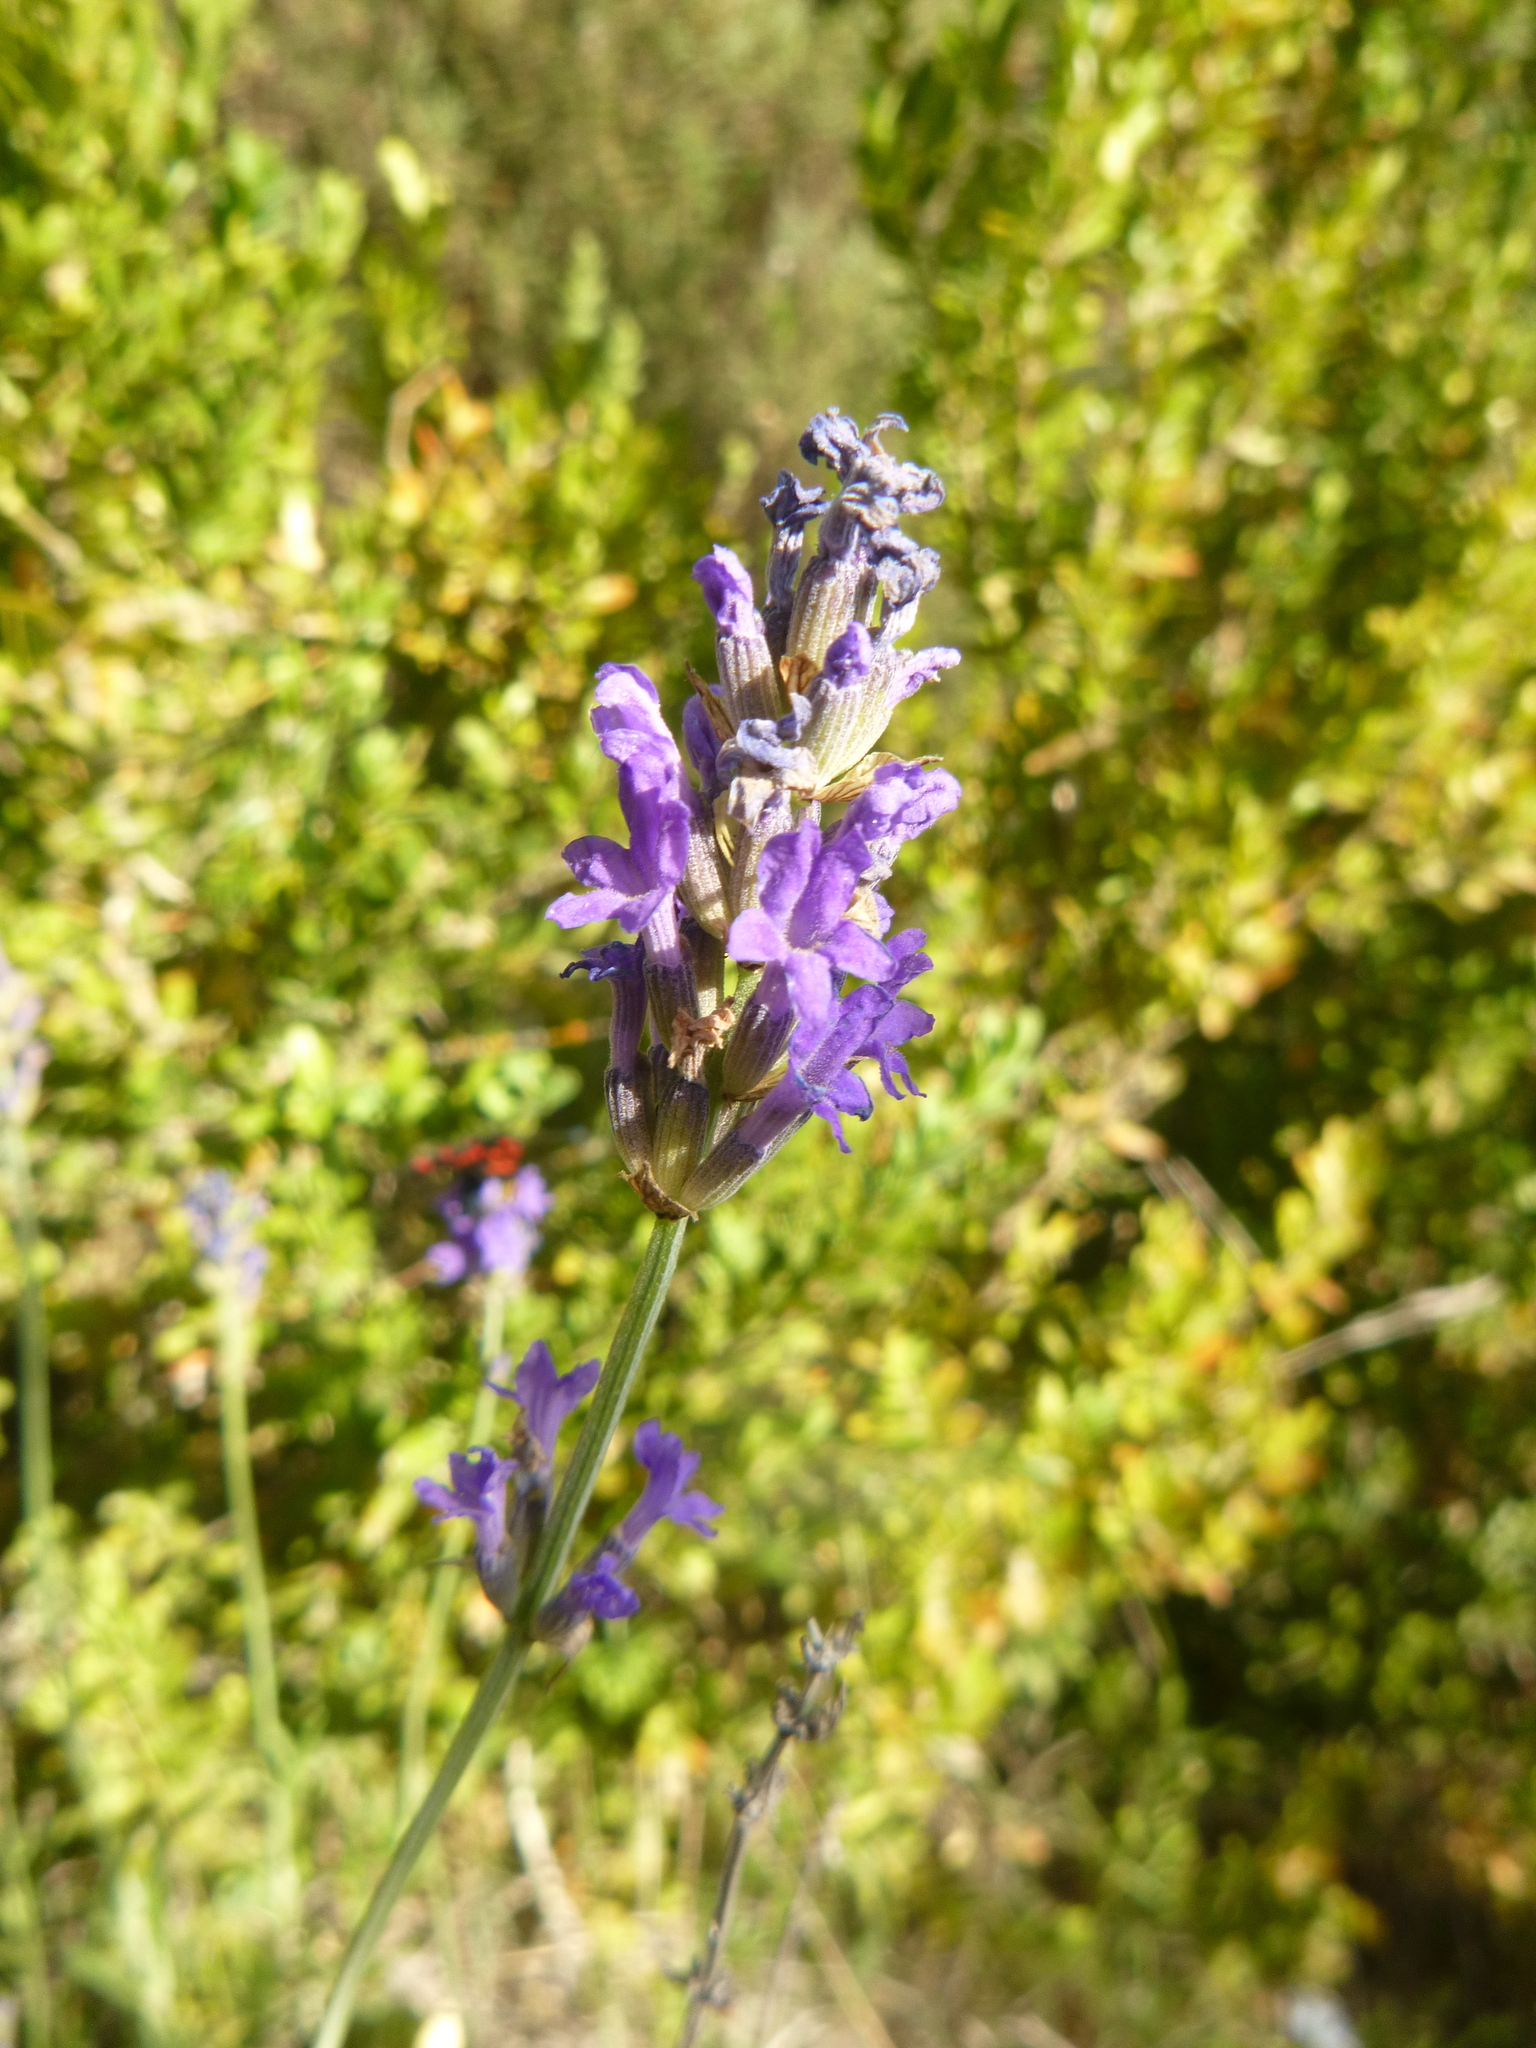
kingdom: Plantae
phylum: Tracheophyta
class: Magnoliopsida
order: Lamiales
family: Lamiaceae
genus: Lavandula
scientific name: Lavandula angustifolia
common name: Garden lavender
